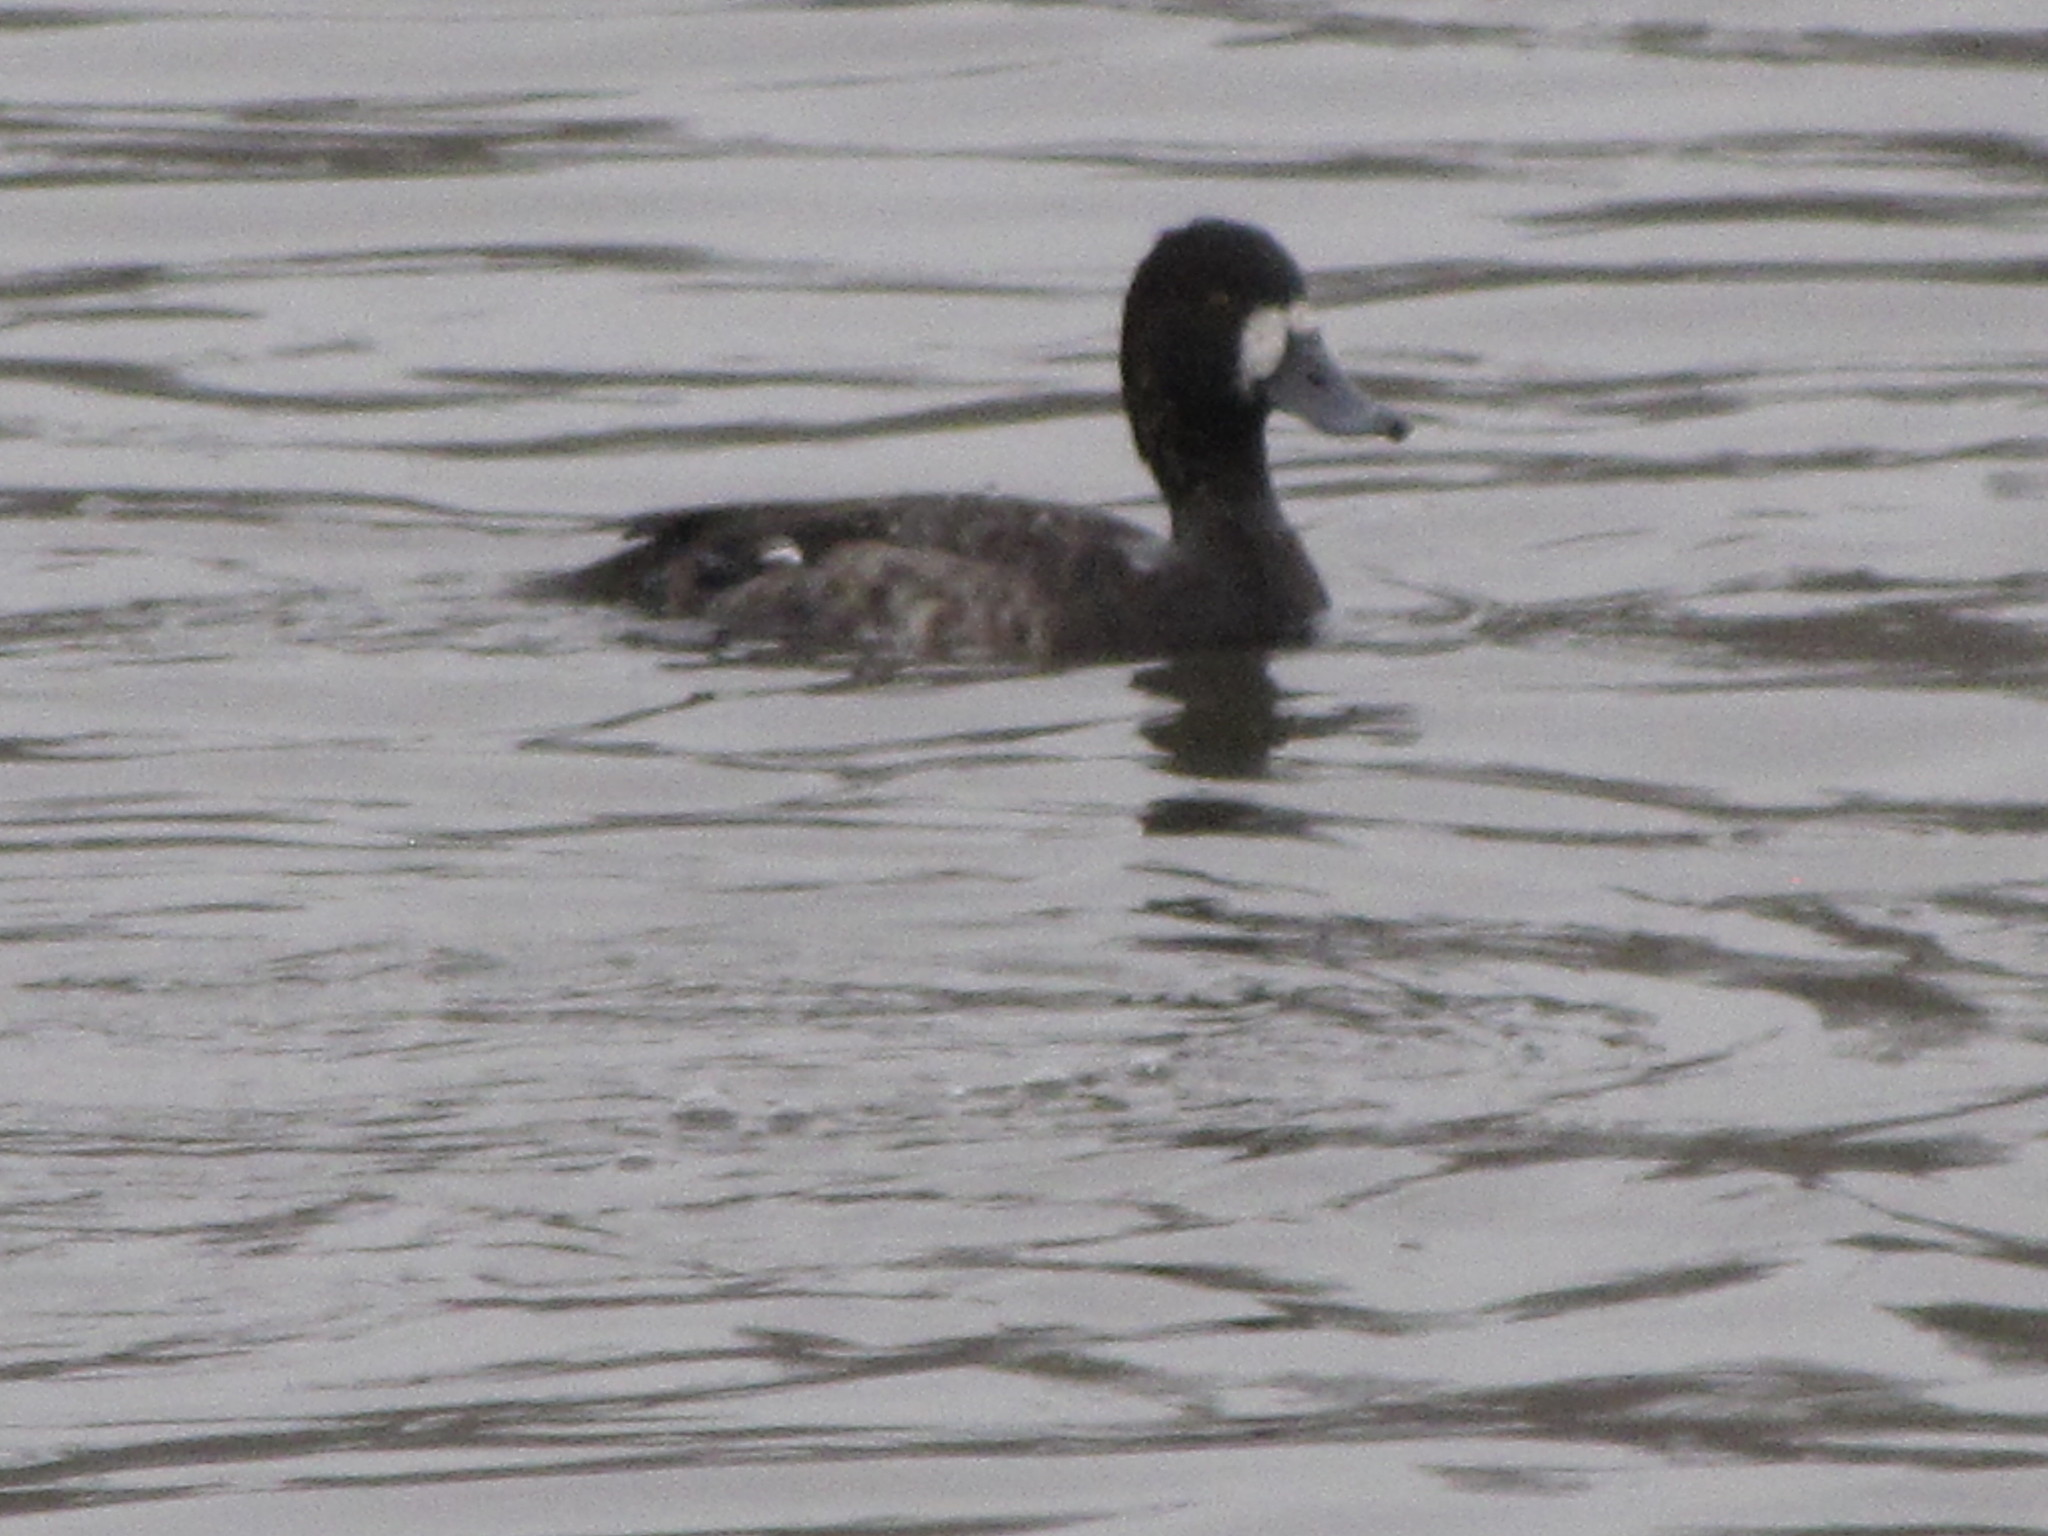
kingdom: Animalia
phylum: Chordata
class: Aves
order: Anseriformes
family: Anatidae
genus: Aythya
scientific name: Aythya affinis
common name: Lesser scaup
